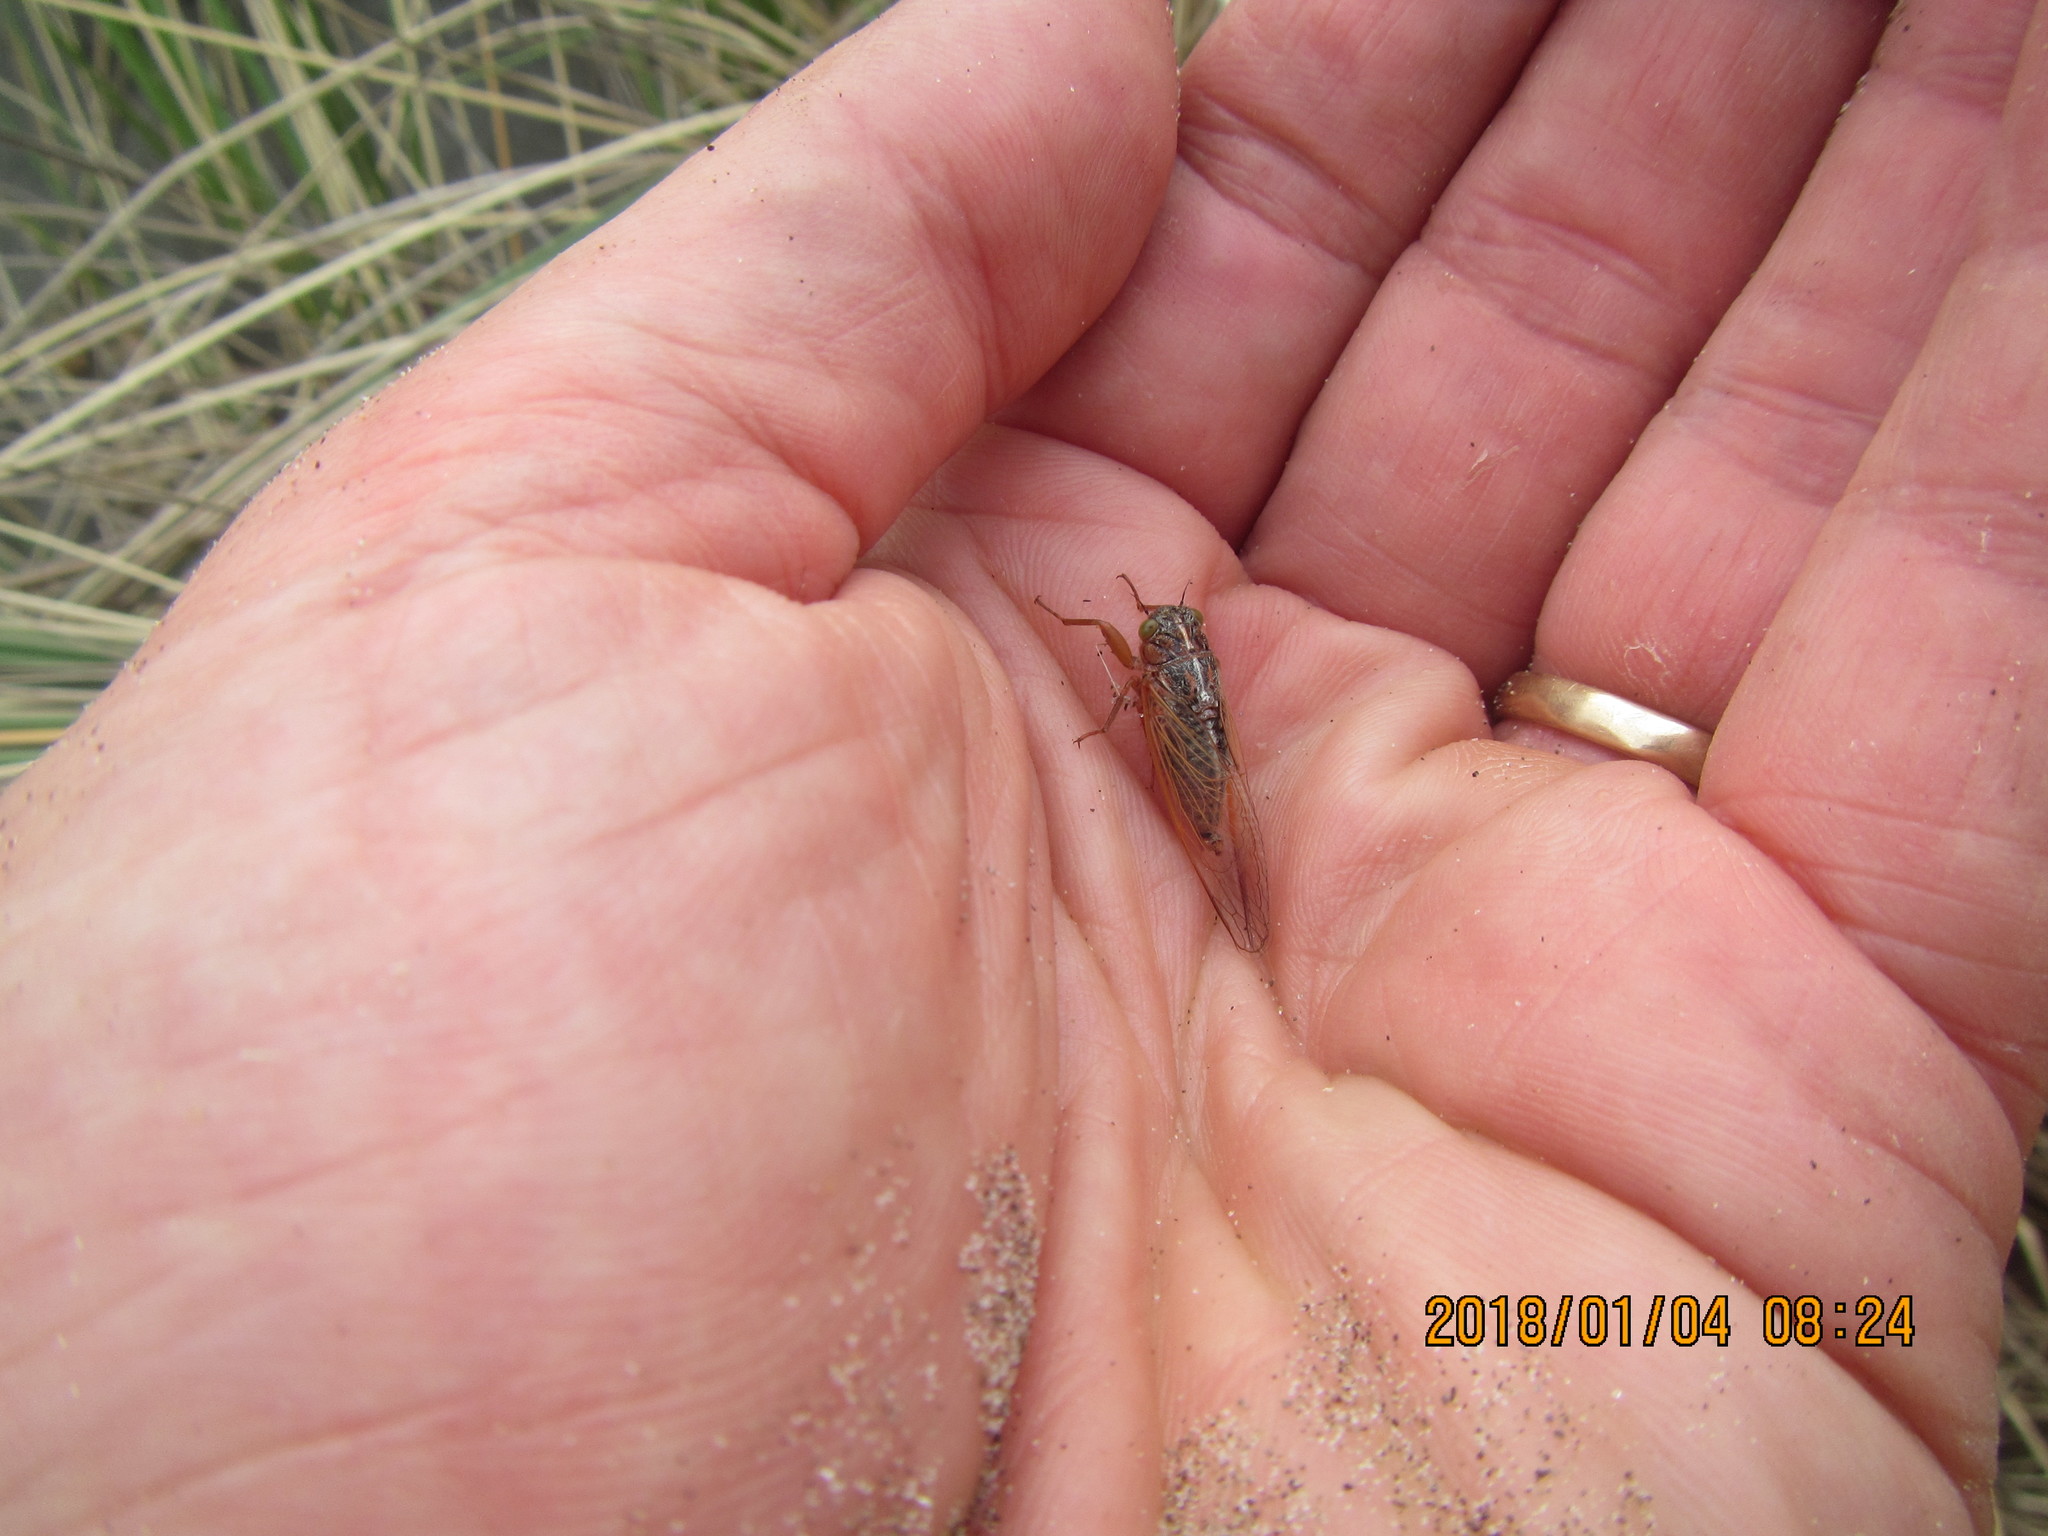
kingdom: Animalia
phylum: Arthropoda
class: Insecta
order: Hemiptera
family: Cicadidae
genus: Rhodopsalta
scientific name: Rhodopsalta leptomera
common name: Sand dune redtail cicada
